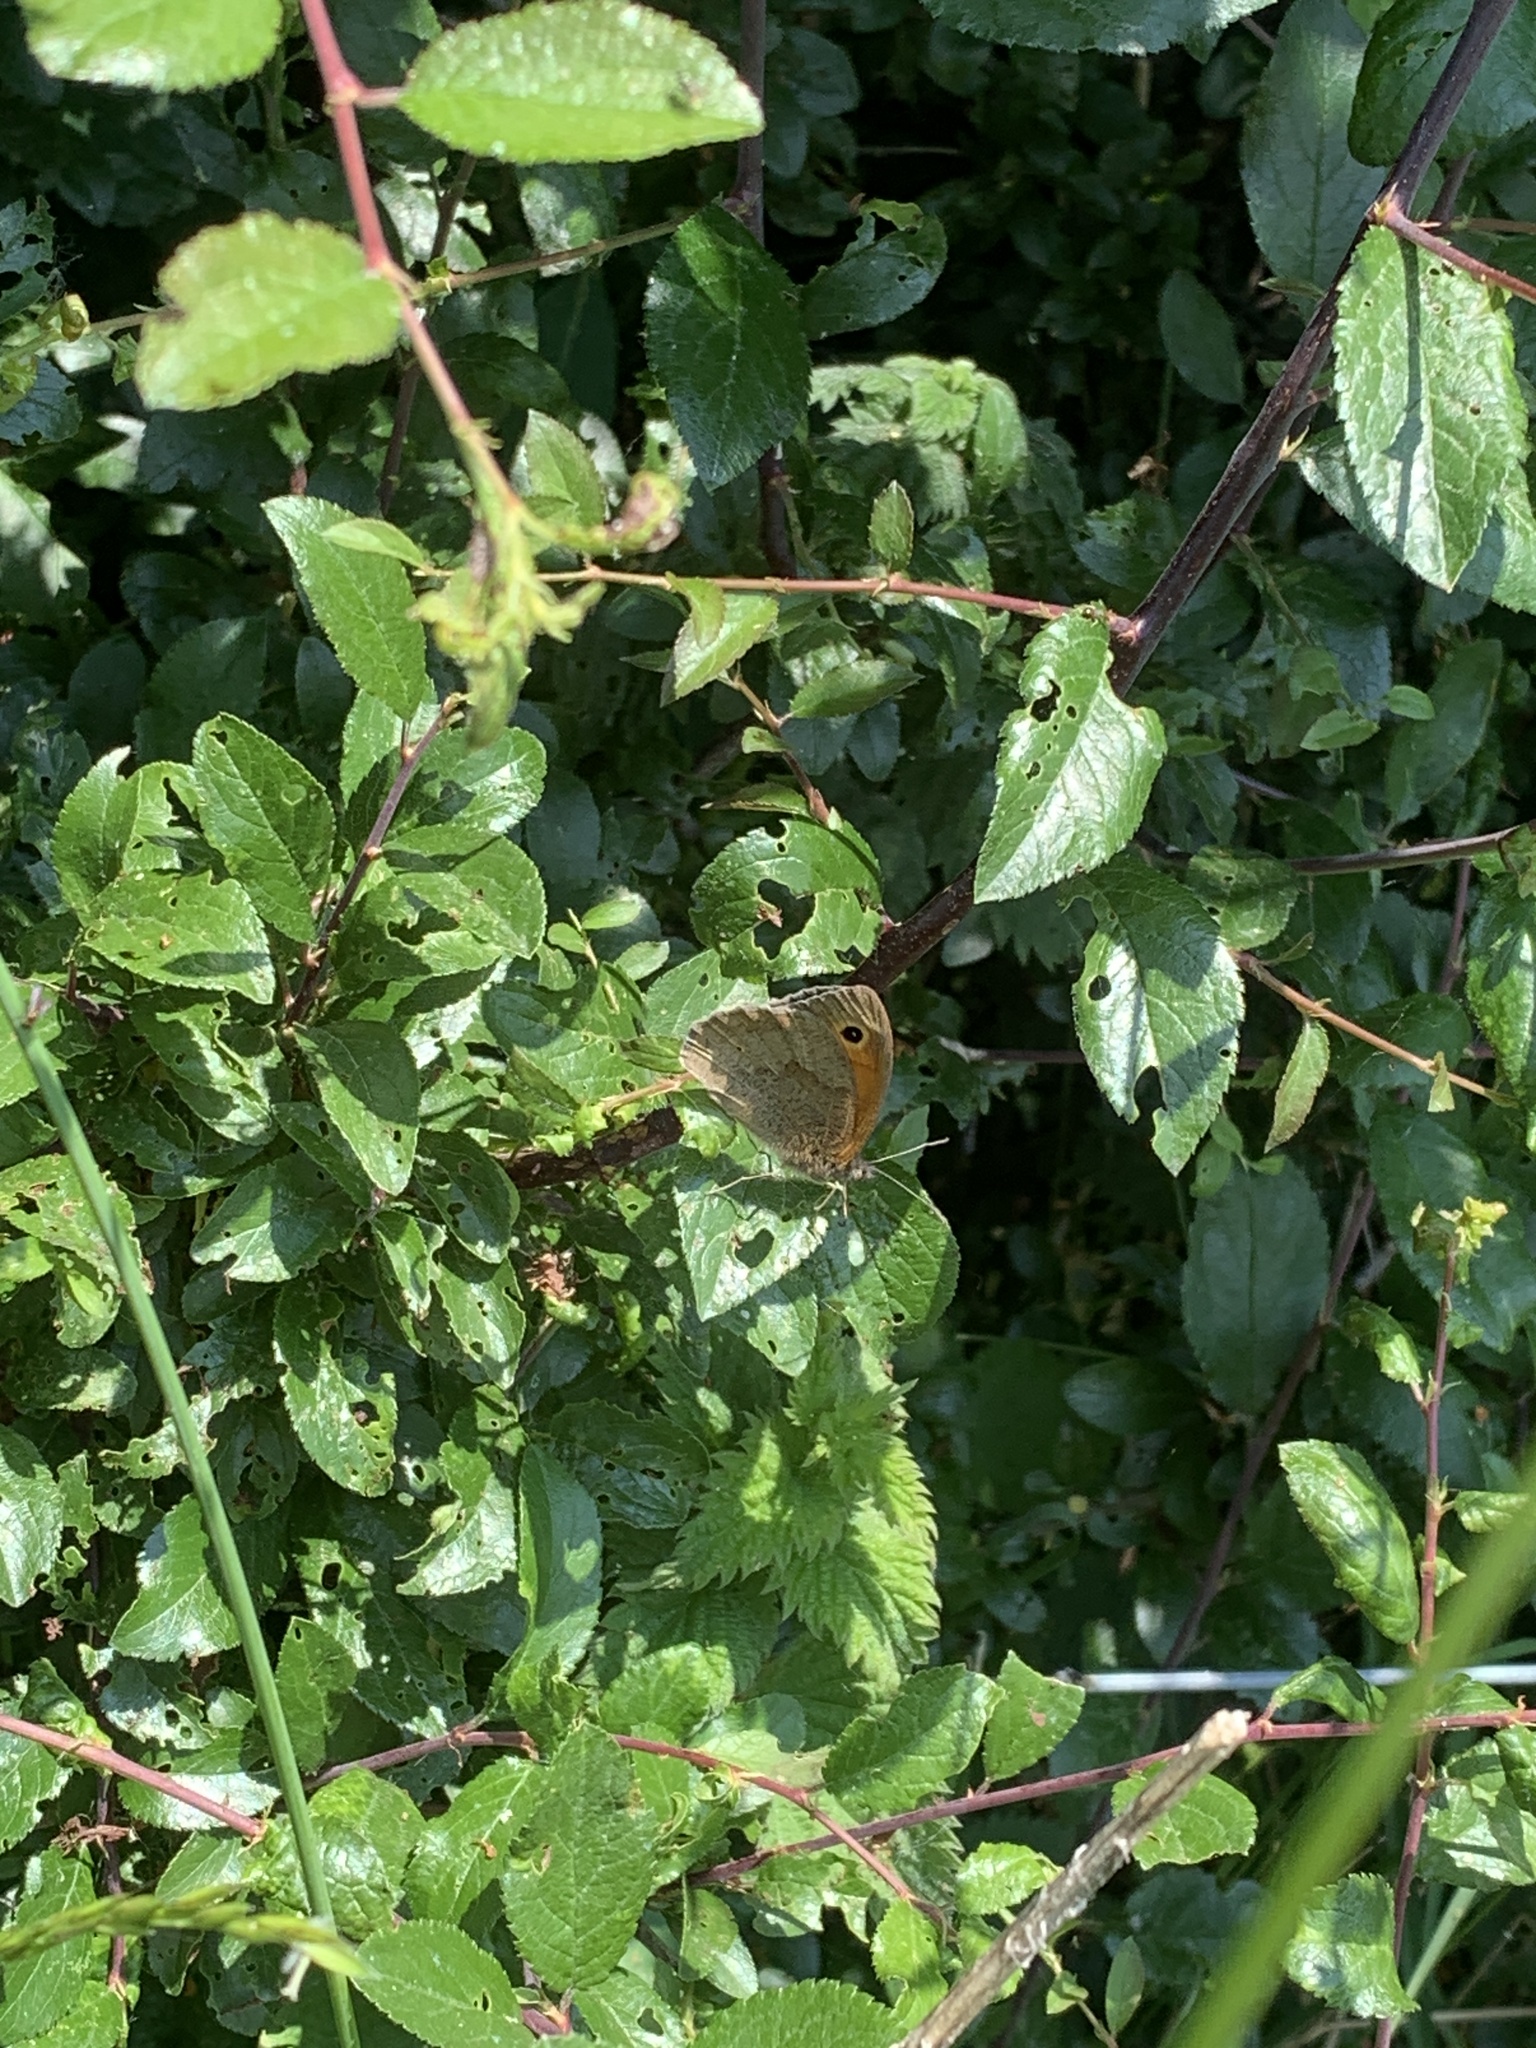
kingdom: Animalia
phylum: Arthropoda
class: Insecta
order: Lepidoptera
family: Nymphalidae
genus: Maniola
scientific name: Maniola jurtina
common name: Meadow brown
